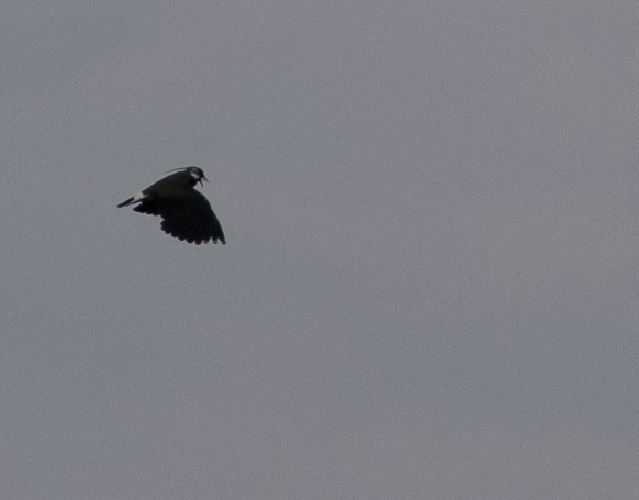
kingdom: Animalia
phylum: Chordata
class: Aves
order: Charadriiformes
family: Charadriidae
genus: Vanellus
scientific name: Vanellus vanellus
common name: Northern lapwing
